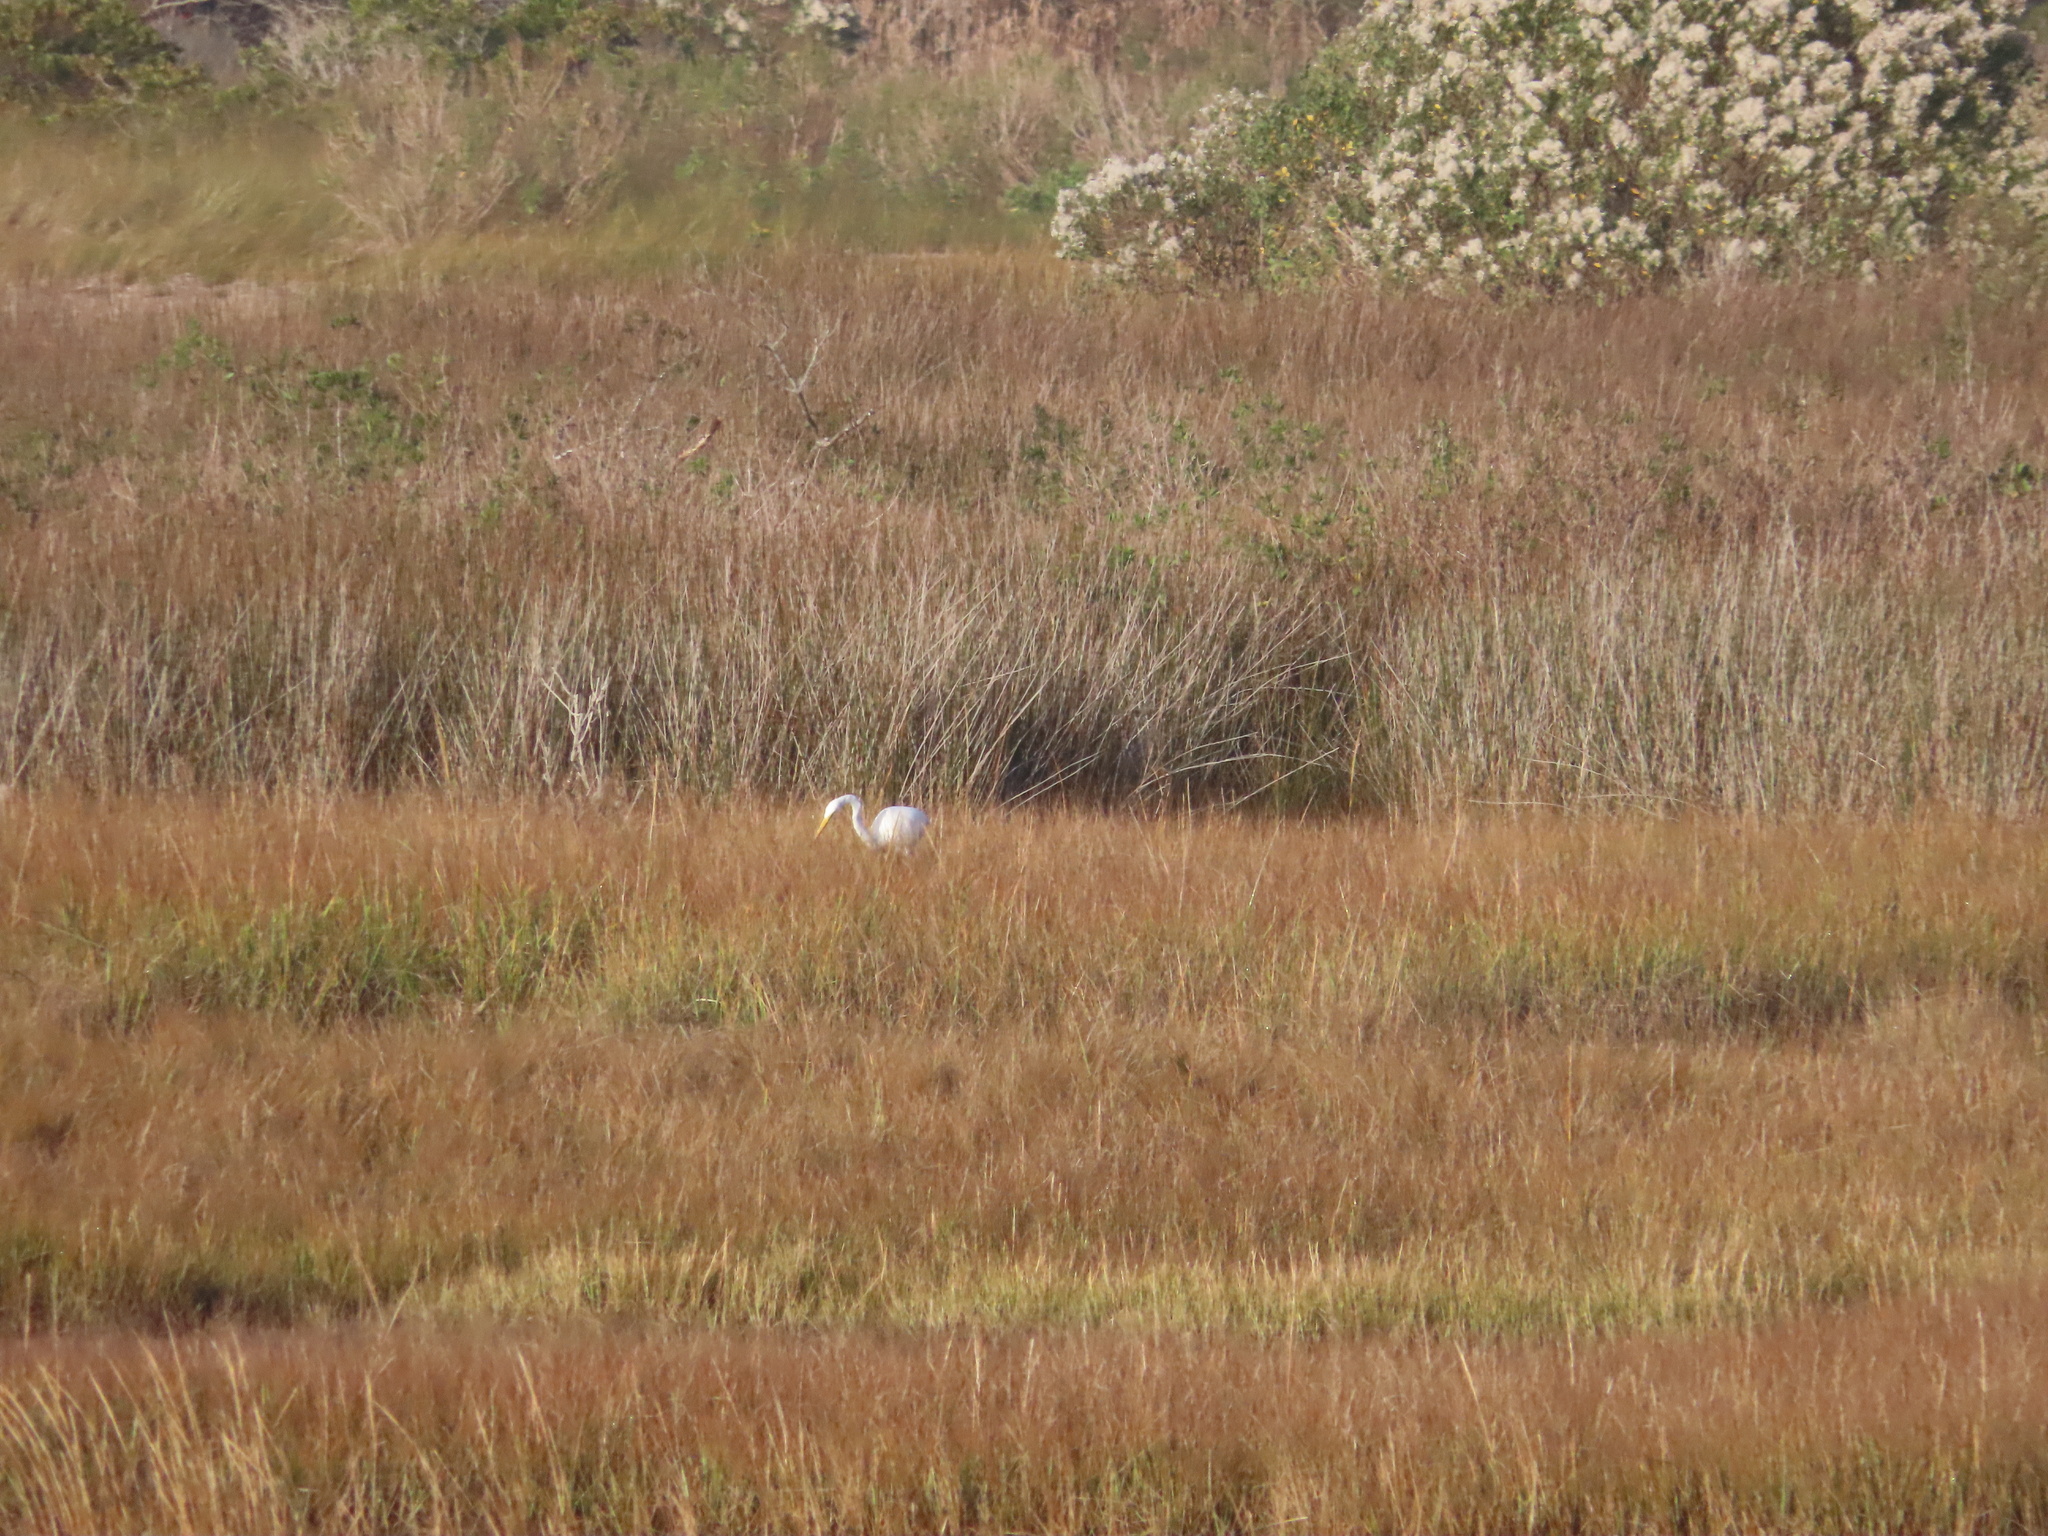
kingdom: Animalia
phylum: Chordata
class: Aves
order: Pelecaniformes
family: Ardeidae
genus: Ardea
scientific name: Ardea alba
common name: Great egret
